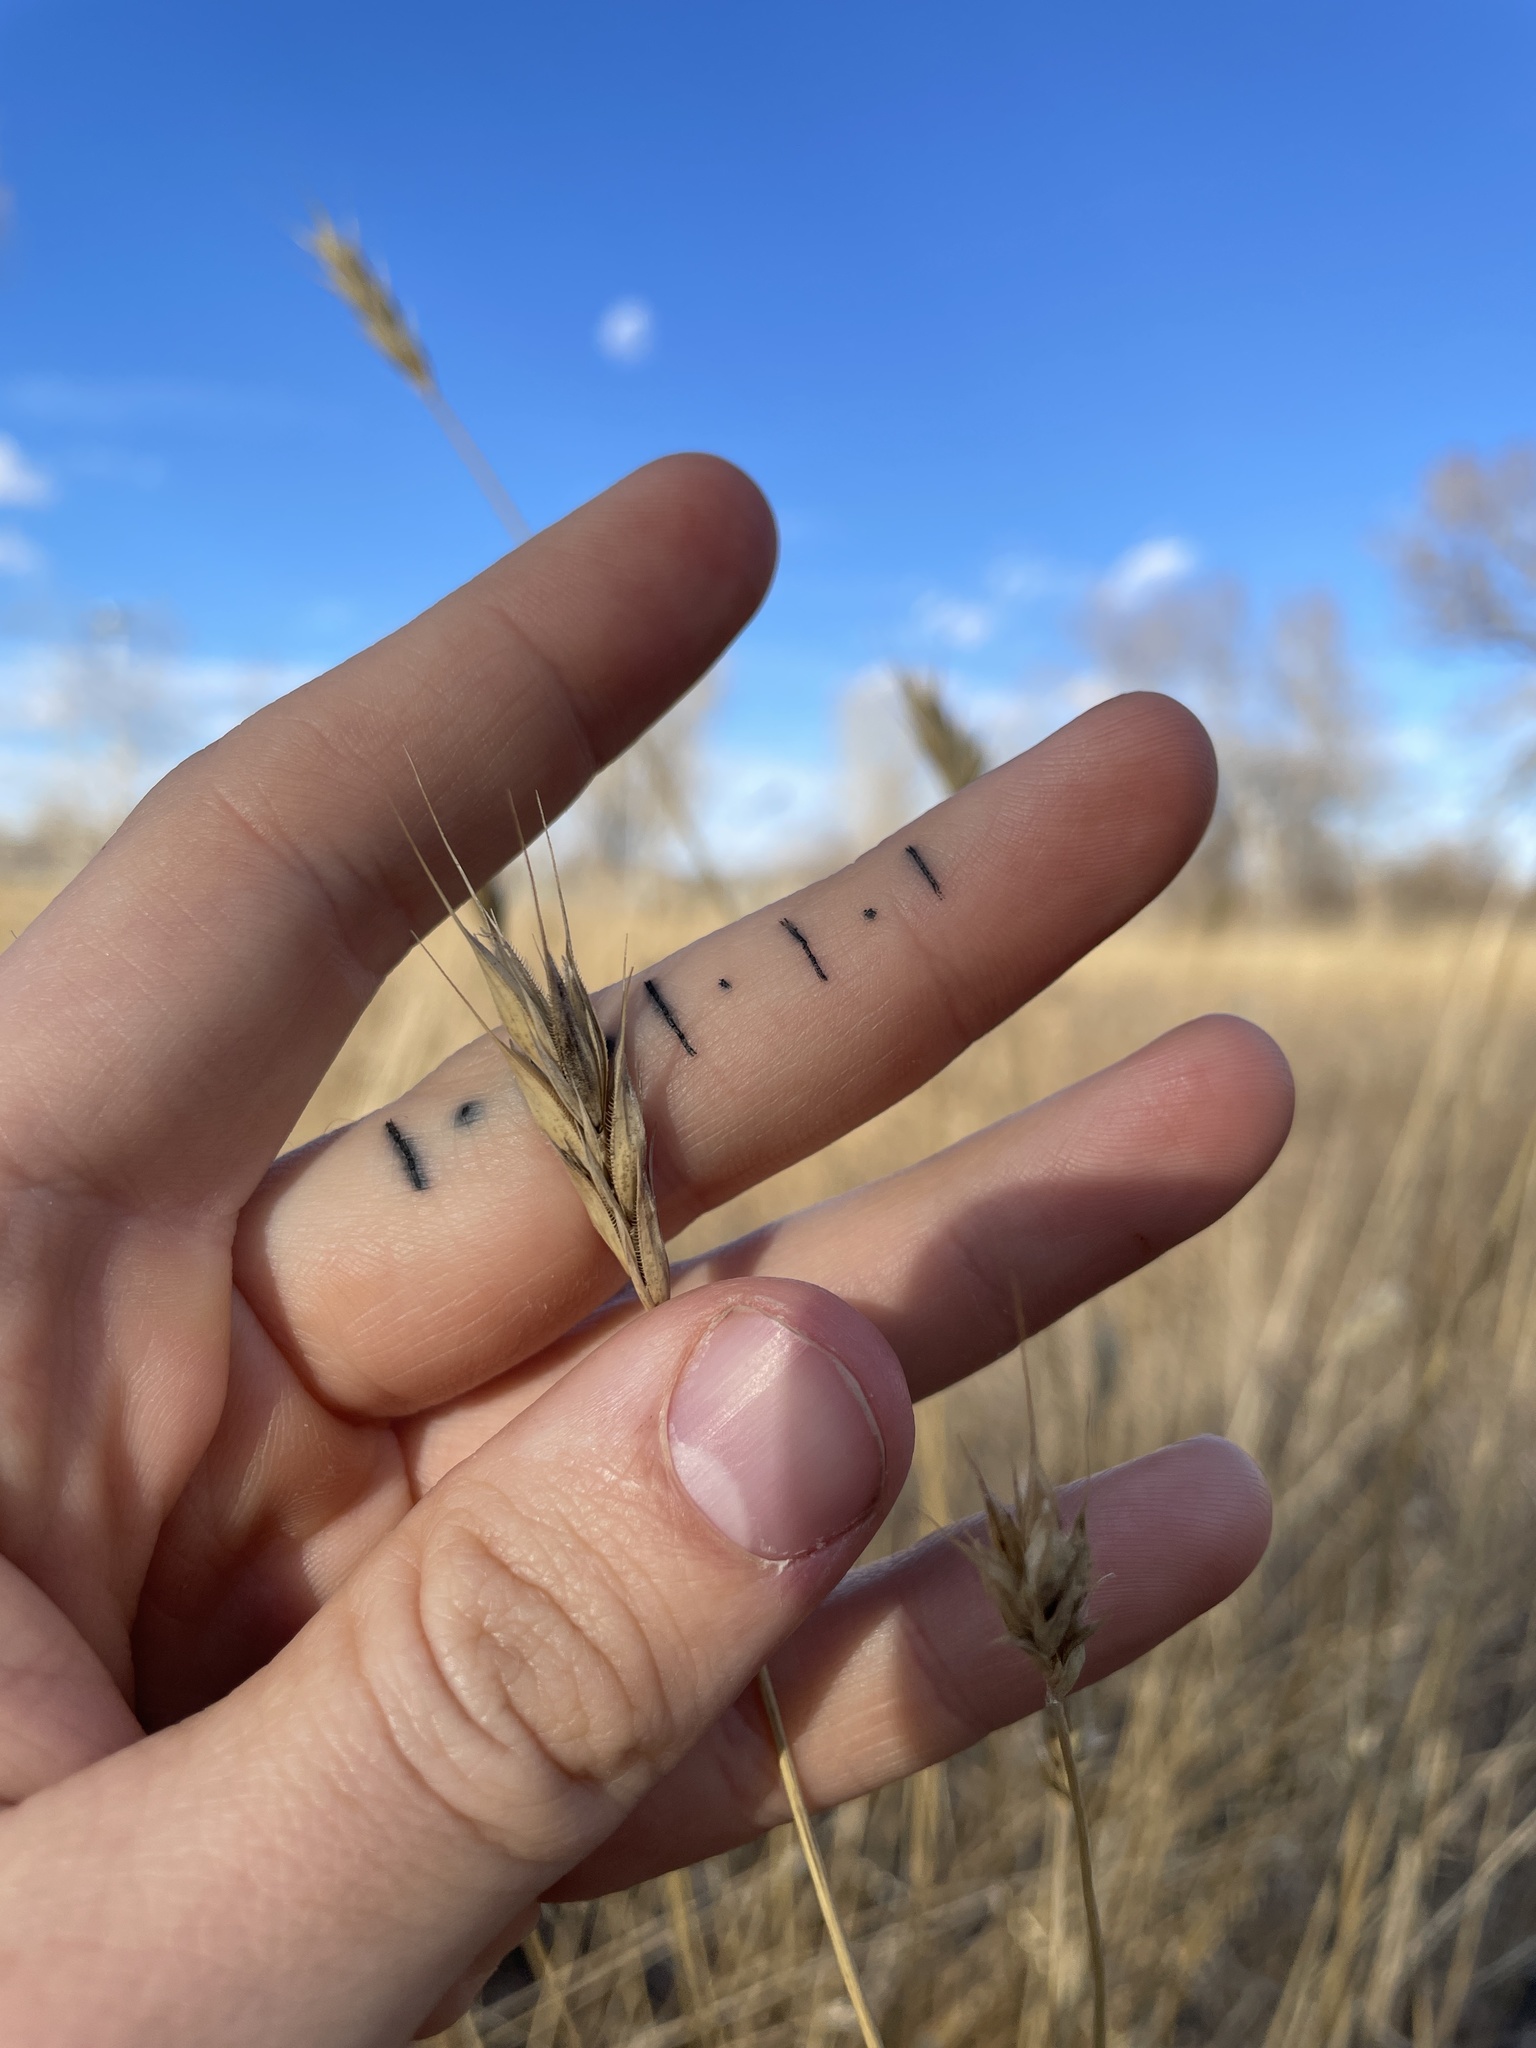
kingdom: Plantae
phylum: Tracheophyta
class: Liliopsida
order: Poales
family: Poaceae
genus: Secale
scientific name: Secale cereale
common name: Rye
